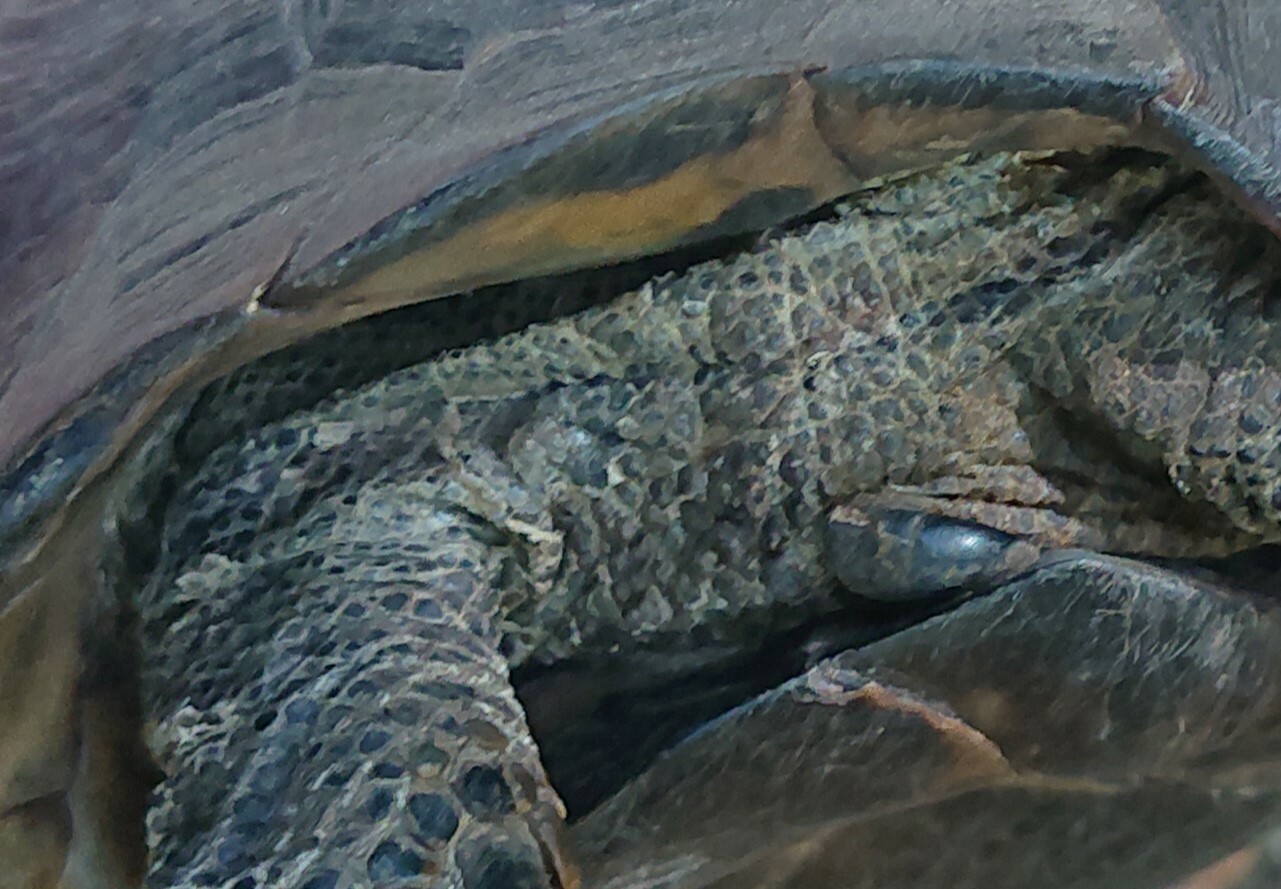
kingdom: Animalia
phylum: Chordata
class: Testudines
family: Testudinidae
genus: Testudo
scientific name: Testudo graeca
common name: Common tortoise
